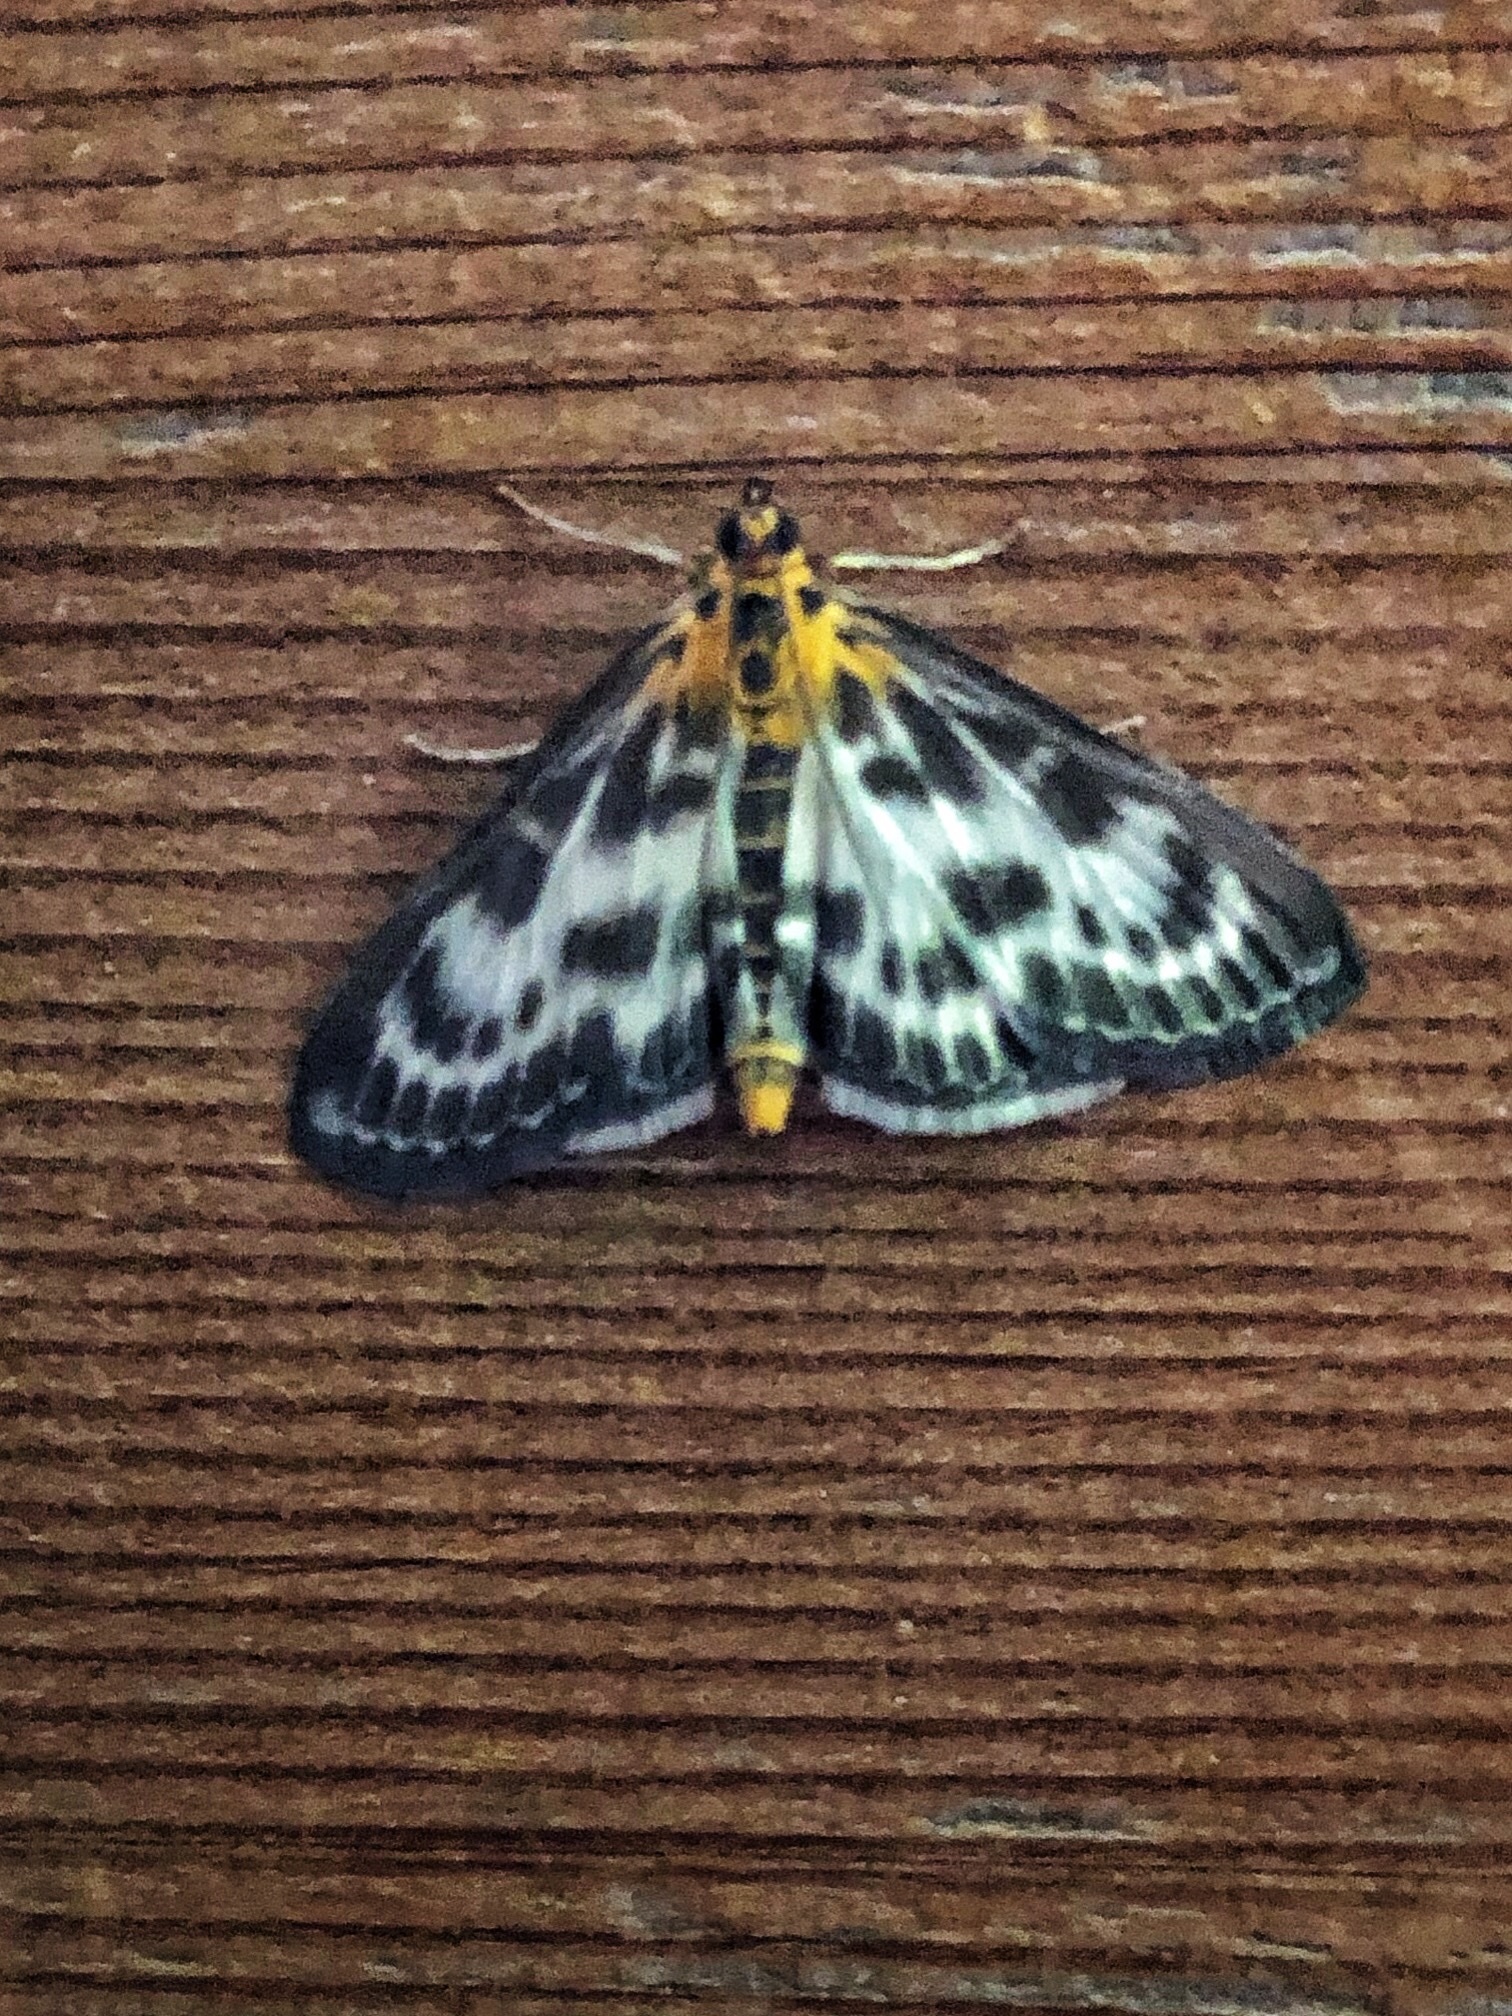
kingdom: Animalia
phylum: Arthropoda
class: Insecta
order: Lepidoptera
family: Crambidae
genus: Anania
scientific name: Anania hortulata
